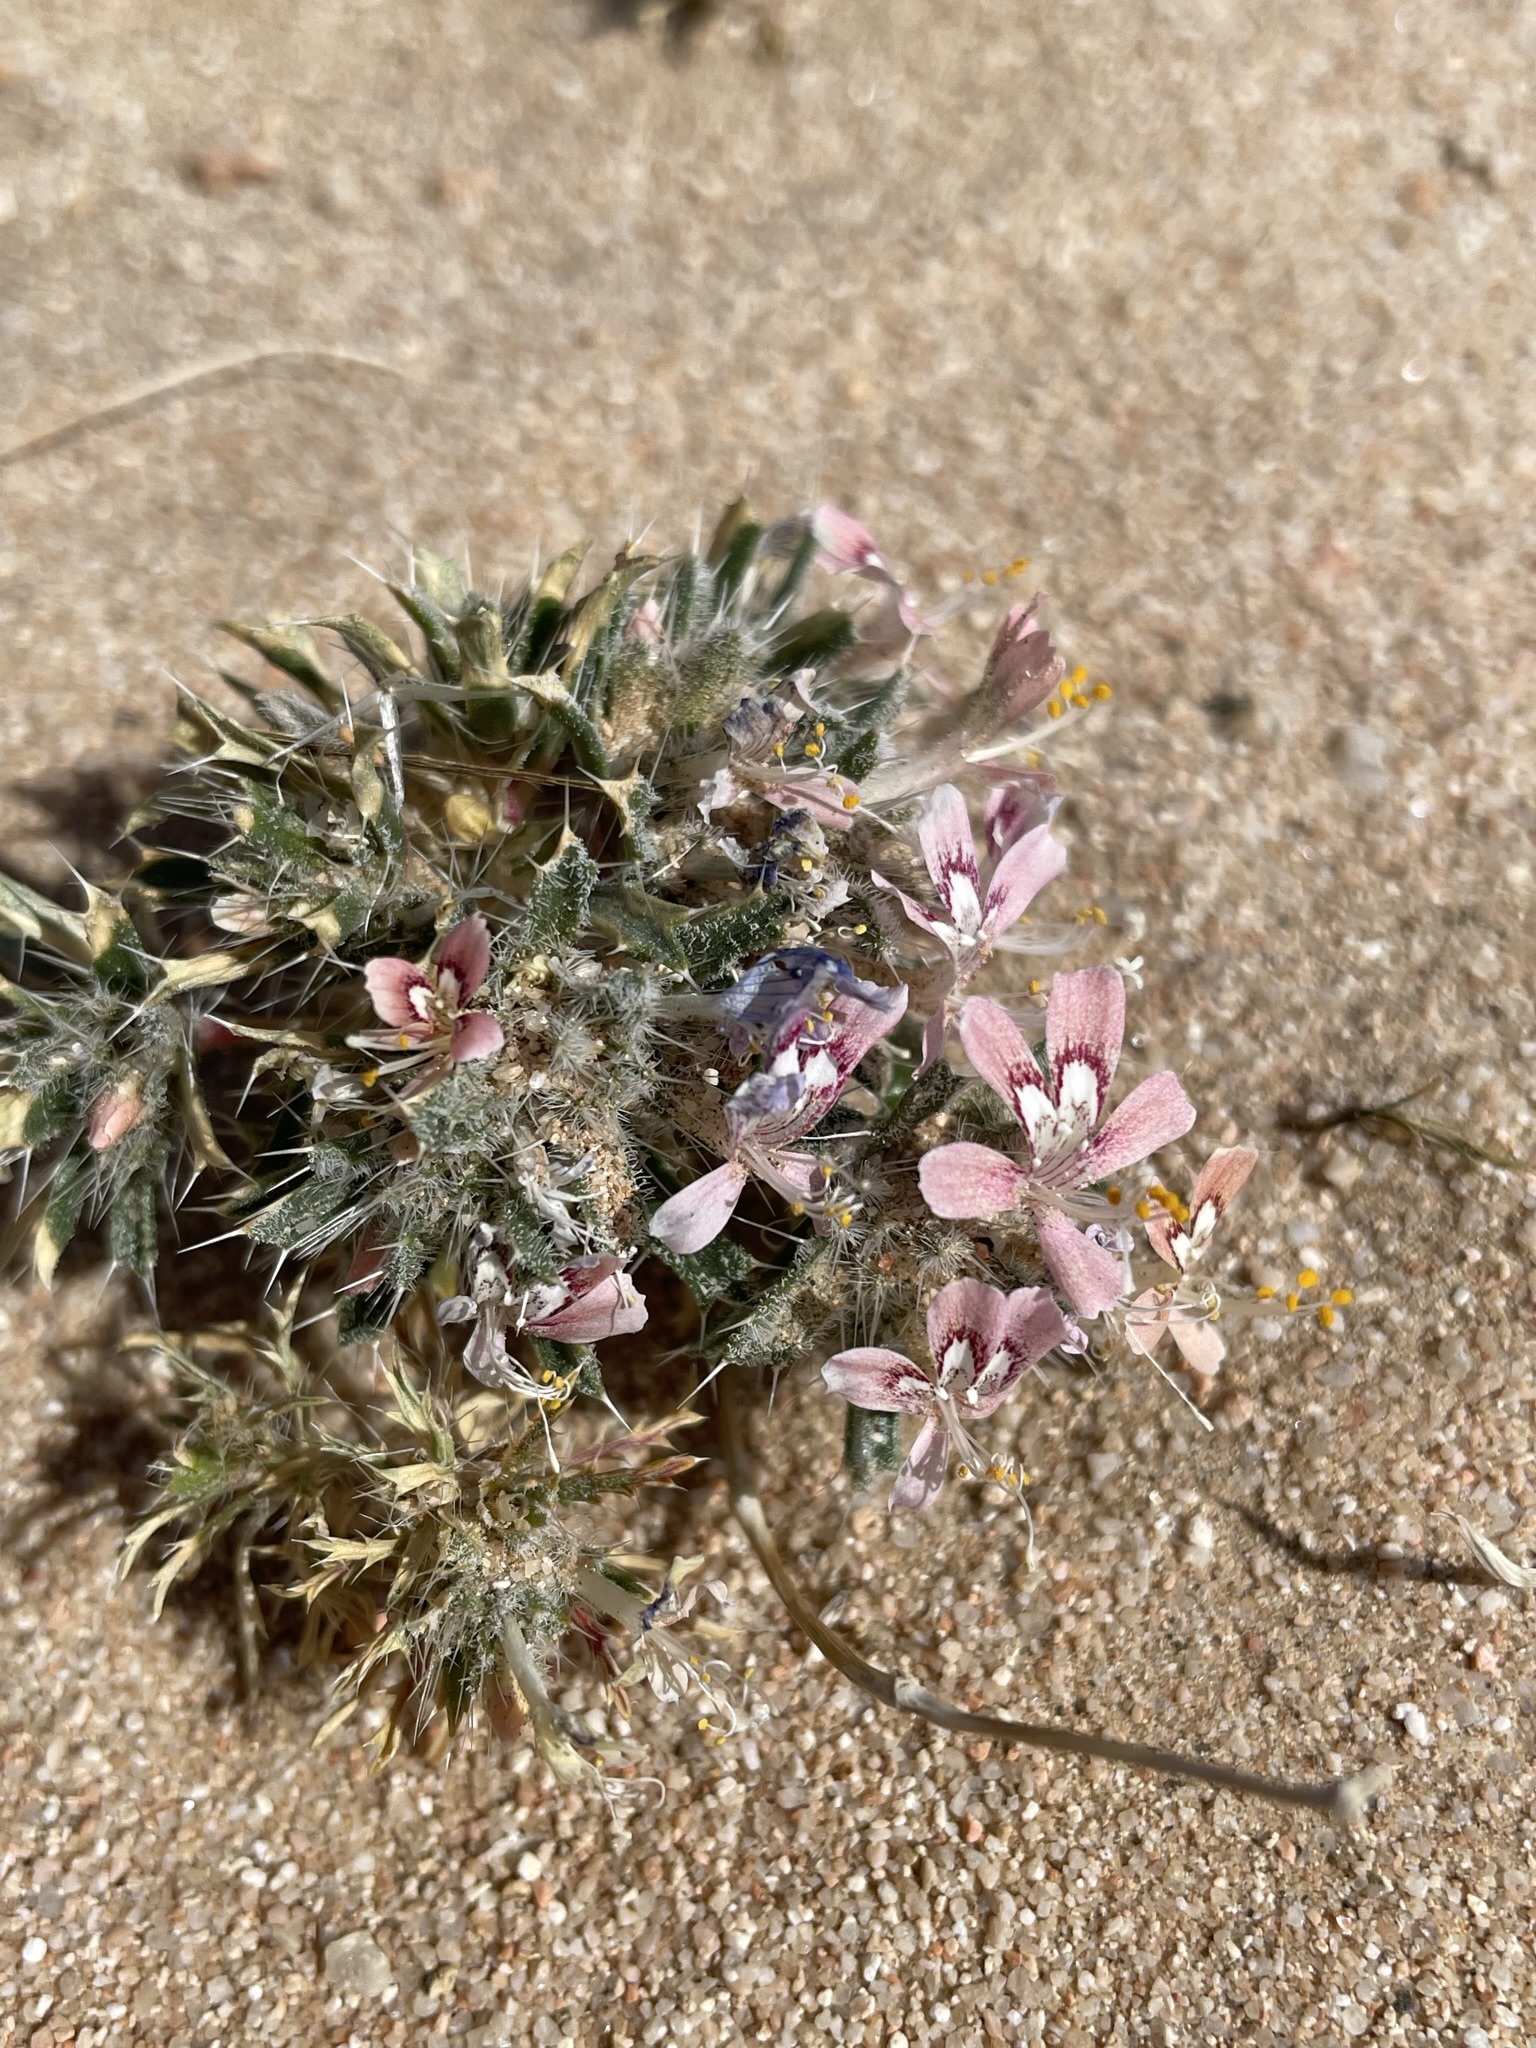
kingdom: Plantae
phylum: Tracheophyta
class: Magnoliopsida
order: Ericales
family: Polemoniaceae
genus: Loeseliastrum
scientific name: Loeseliastrum matthewsii
